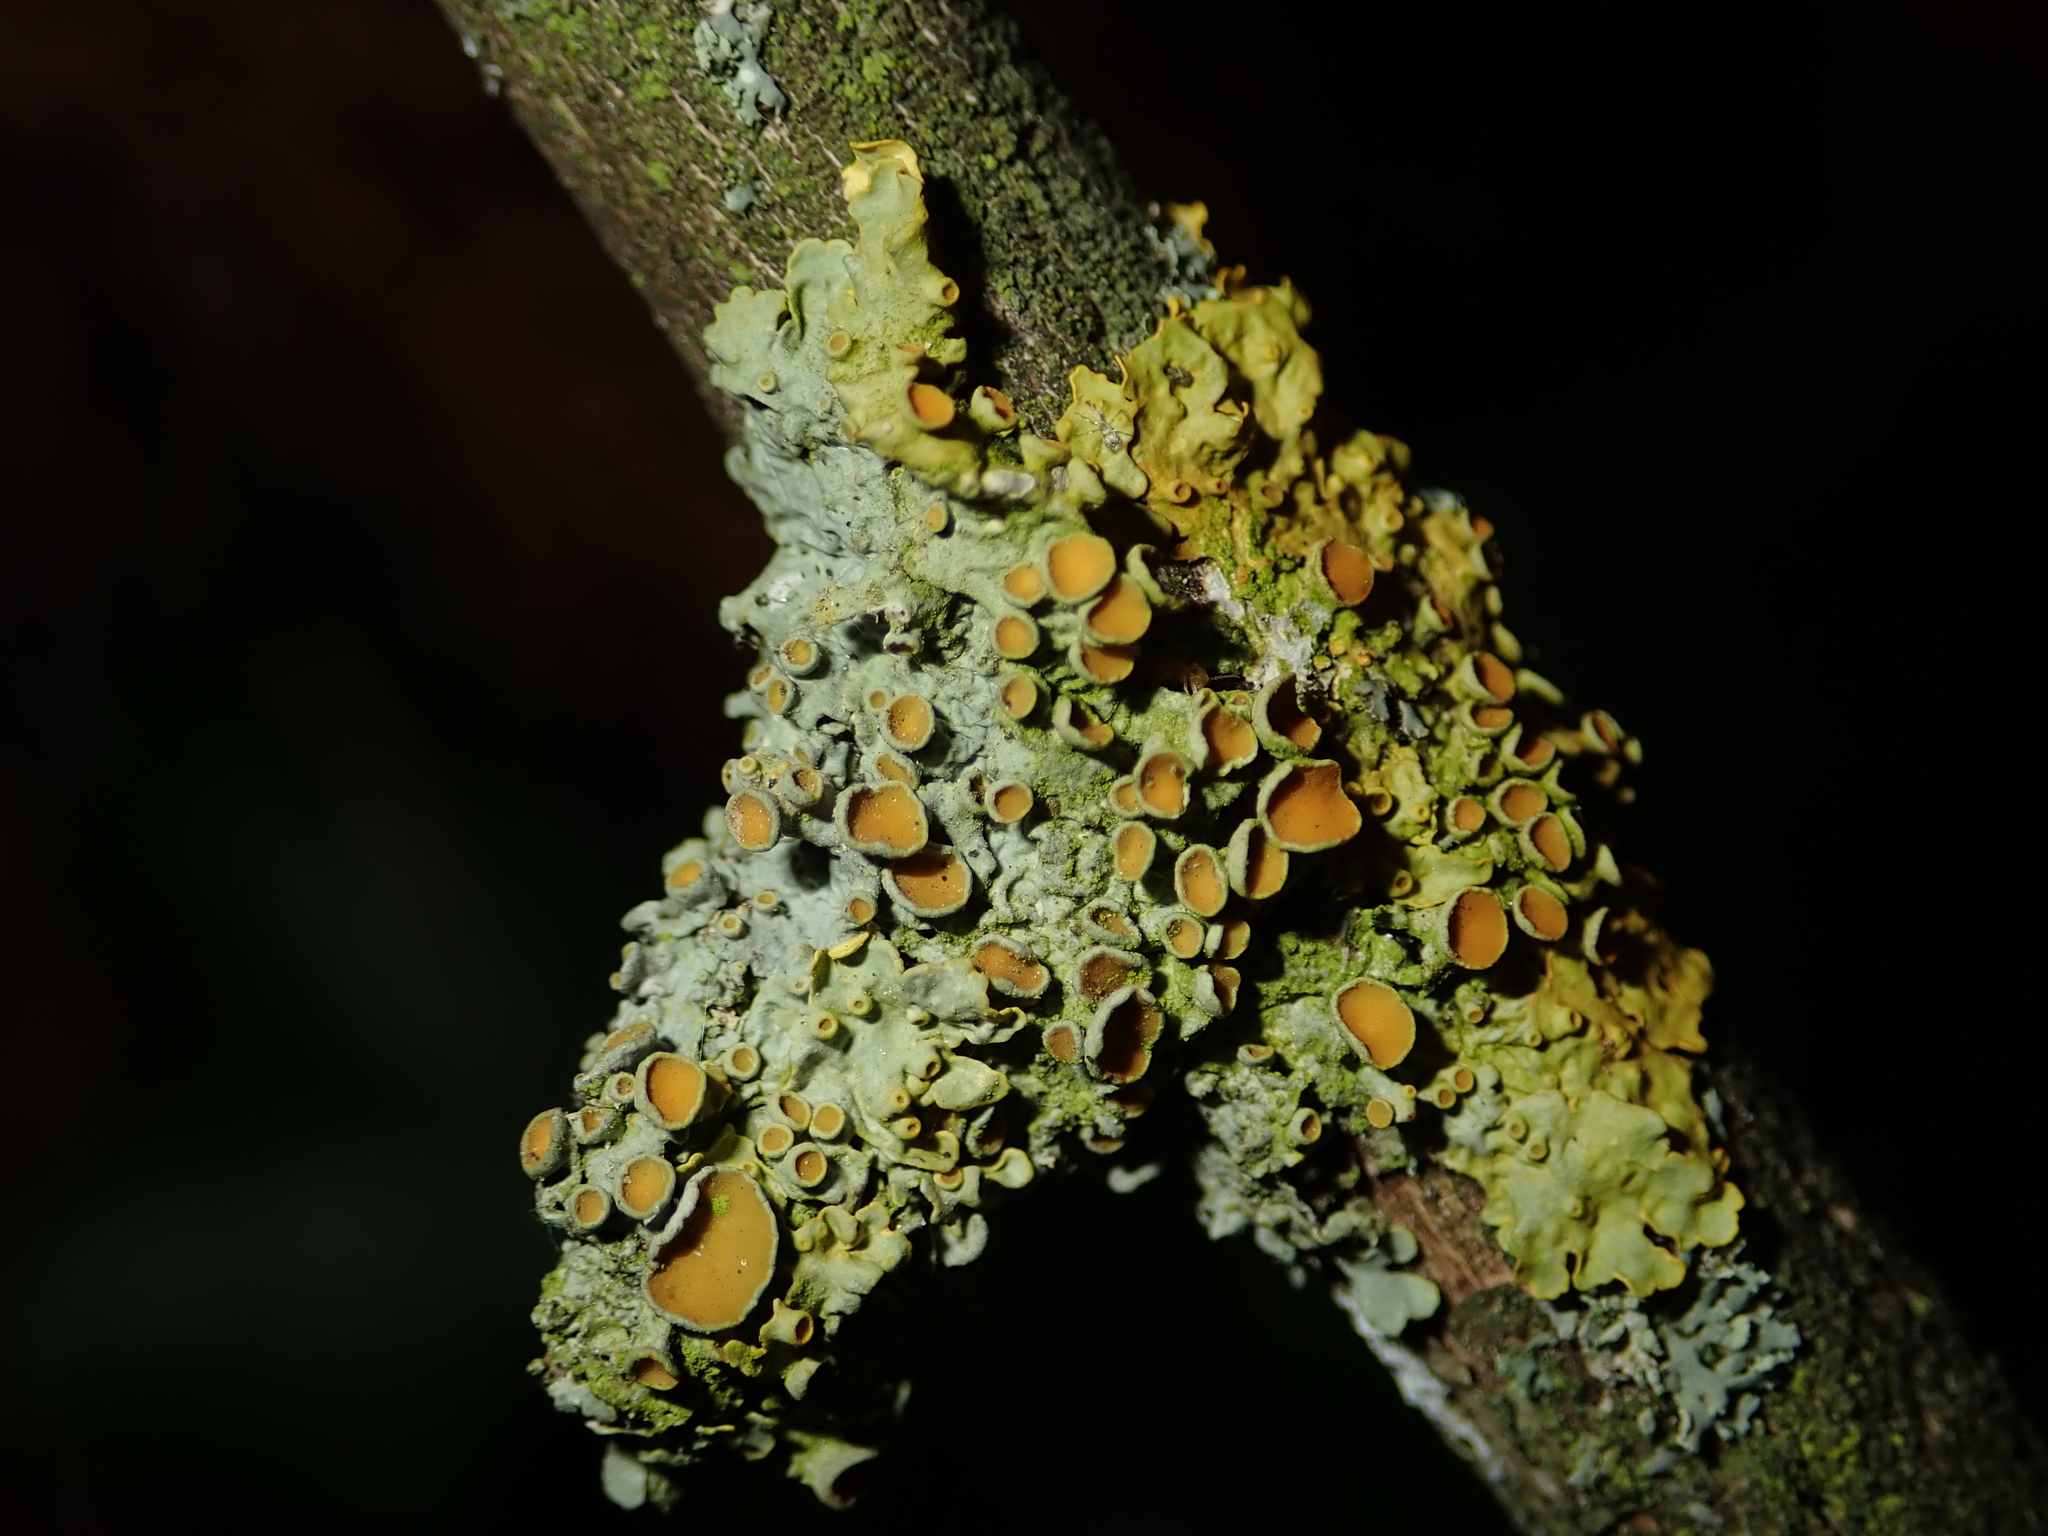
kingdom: Fungi
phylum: Ascomycota
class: Lecanoromycetes
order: Teloschistales
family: Teloschistaceae
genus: Xanthoria
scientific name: Xanthoria parietina
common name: Common orange lichen
